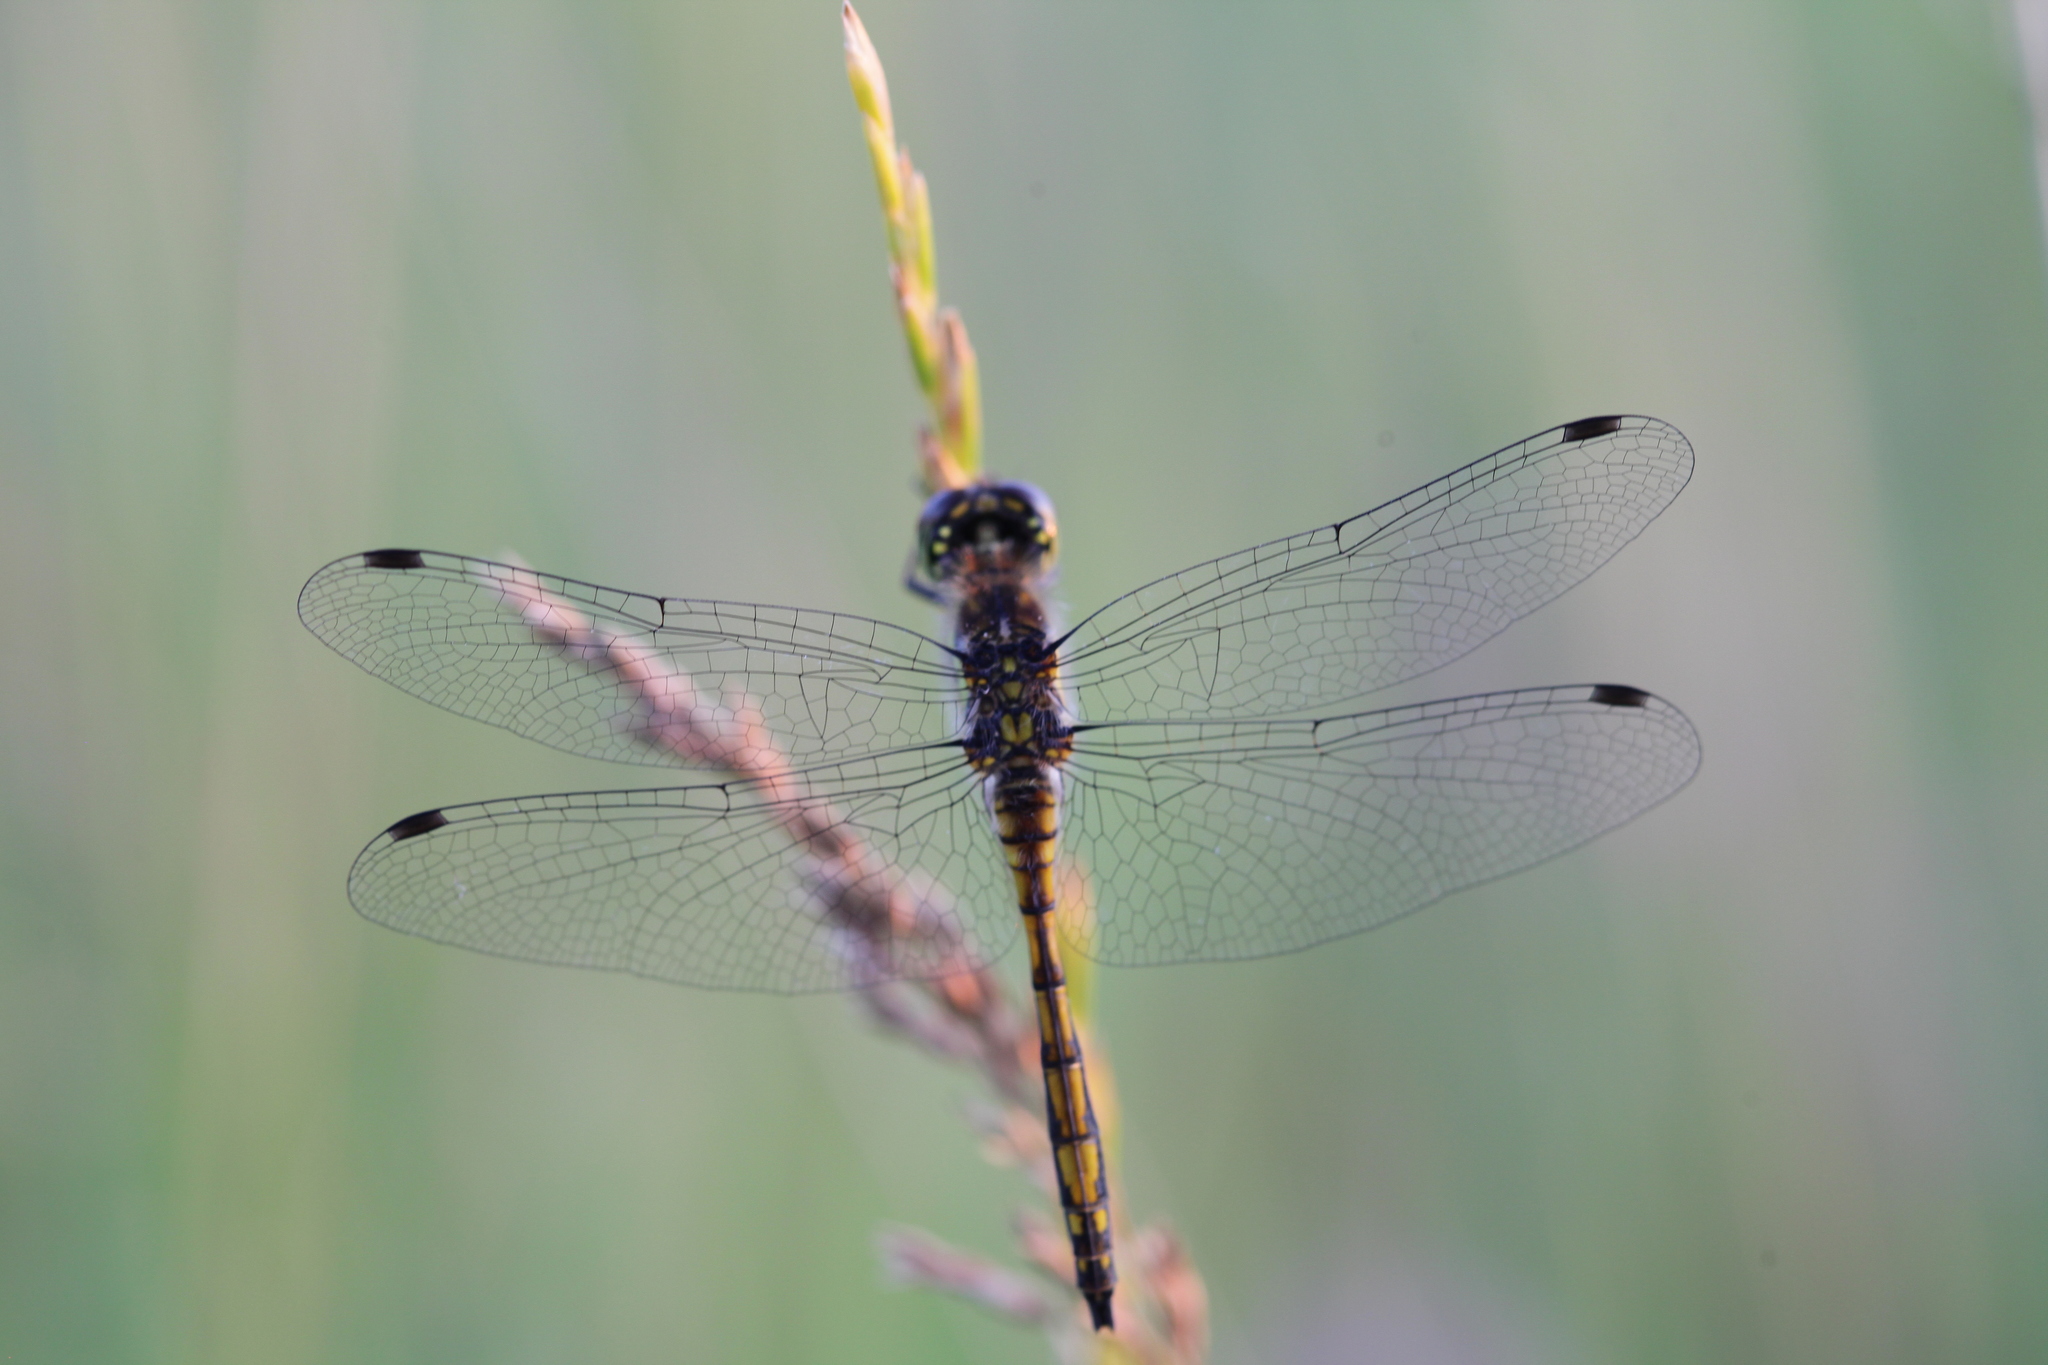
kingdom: Animalia
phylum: Arthropoda
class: Insecta
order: Odonata
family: Libellulidae
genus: Sympetrum
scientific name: Sympetrum danae
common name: Black darter
